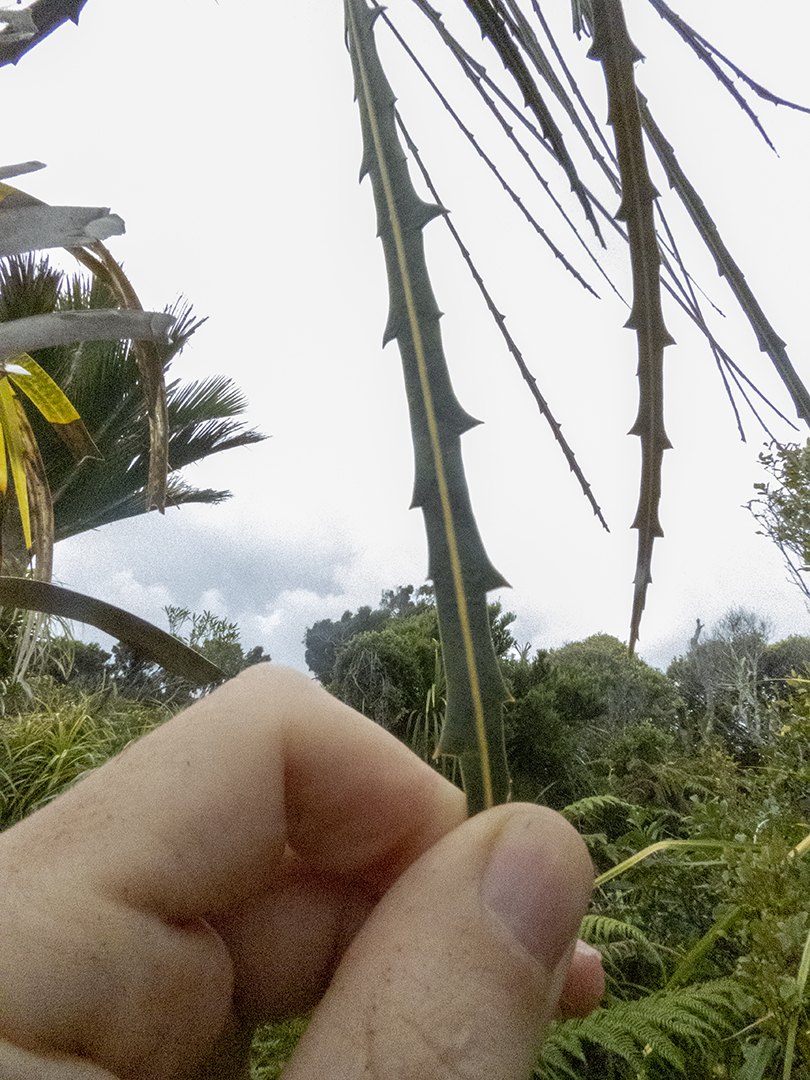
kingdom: Plantae
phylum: Tracheophyta
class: Magnoliopsida
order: Apiales
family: Araliaceae
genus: Pseudopanax
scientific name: Pseudopanax crassifolius
